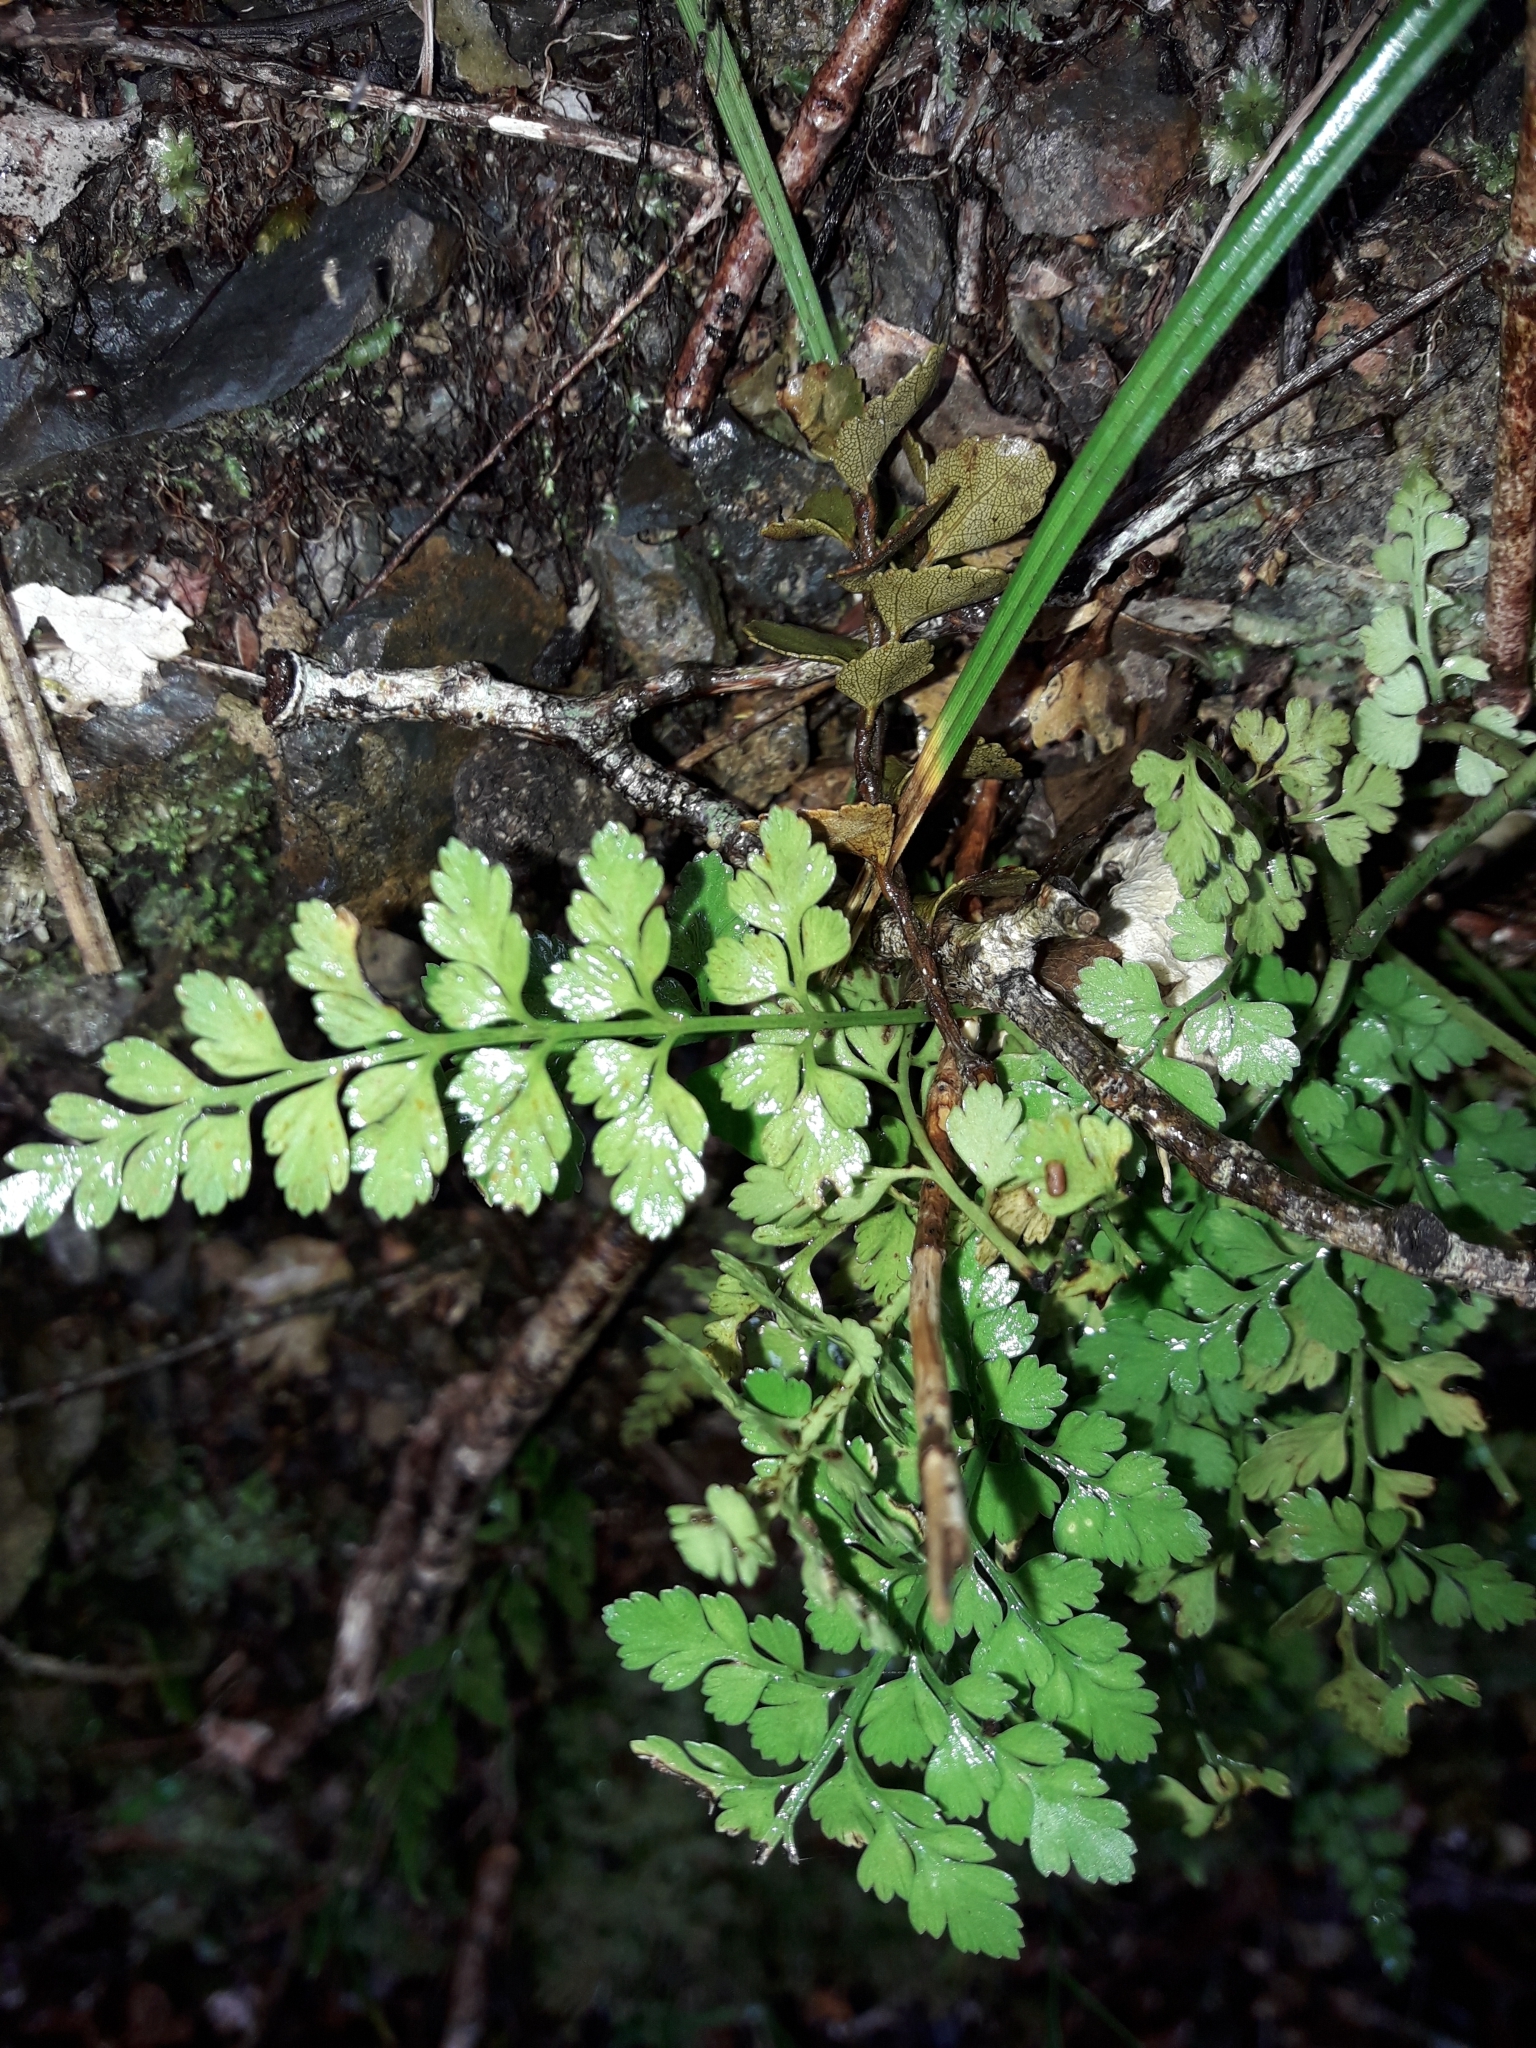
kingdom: Plantae
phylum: Tracheophyta
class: Polypodiopsida
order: Polypodiales
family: Aspleniaceae
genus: Asplenium
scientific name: Asplenium hookerianum
